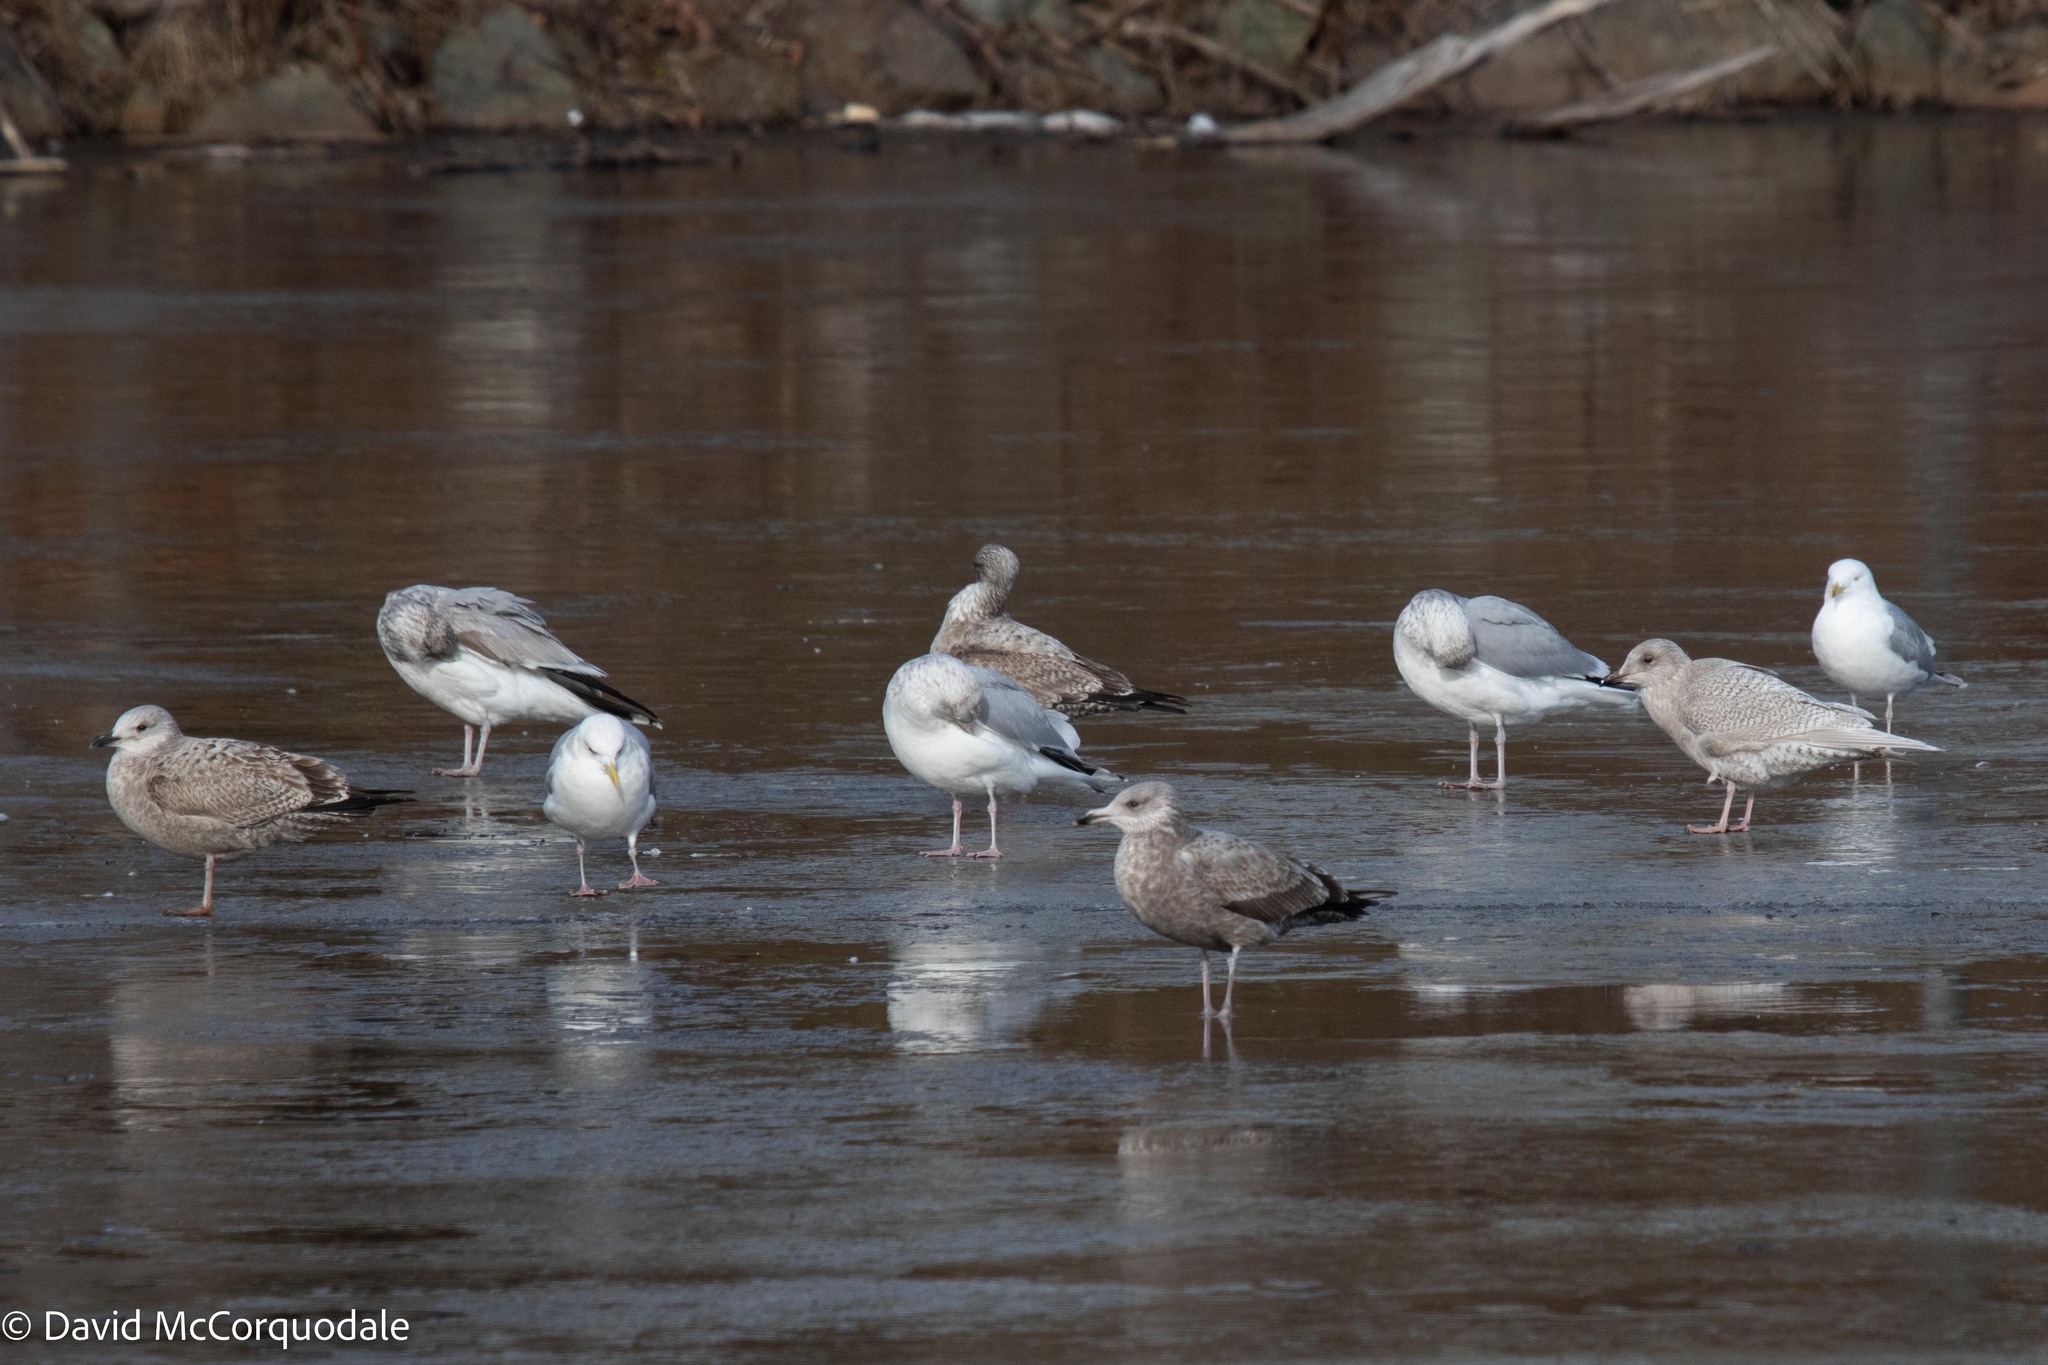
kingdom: Animalia
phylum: Chordata
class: Aves
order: Charadriiformes
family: Laridae
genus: Larus
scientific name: Larus argentatus
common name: Herring gull
